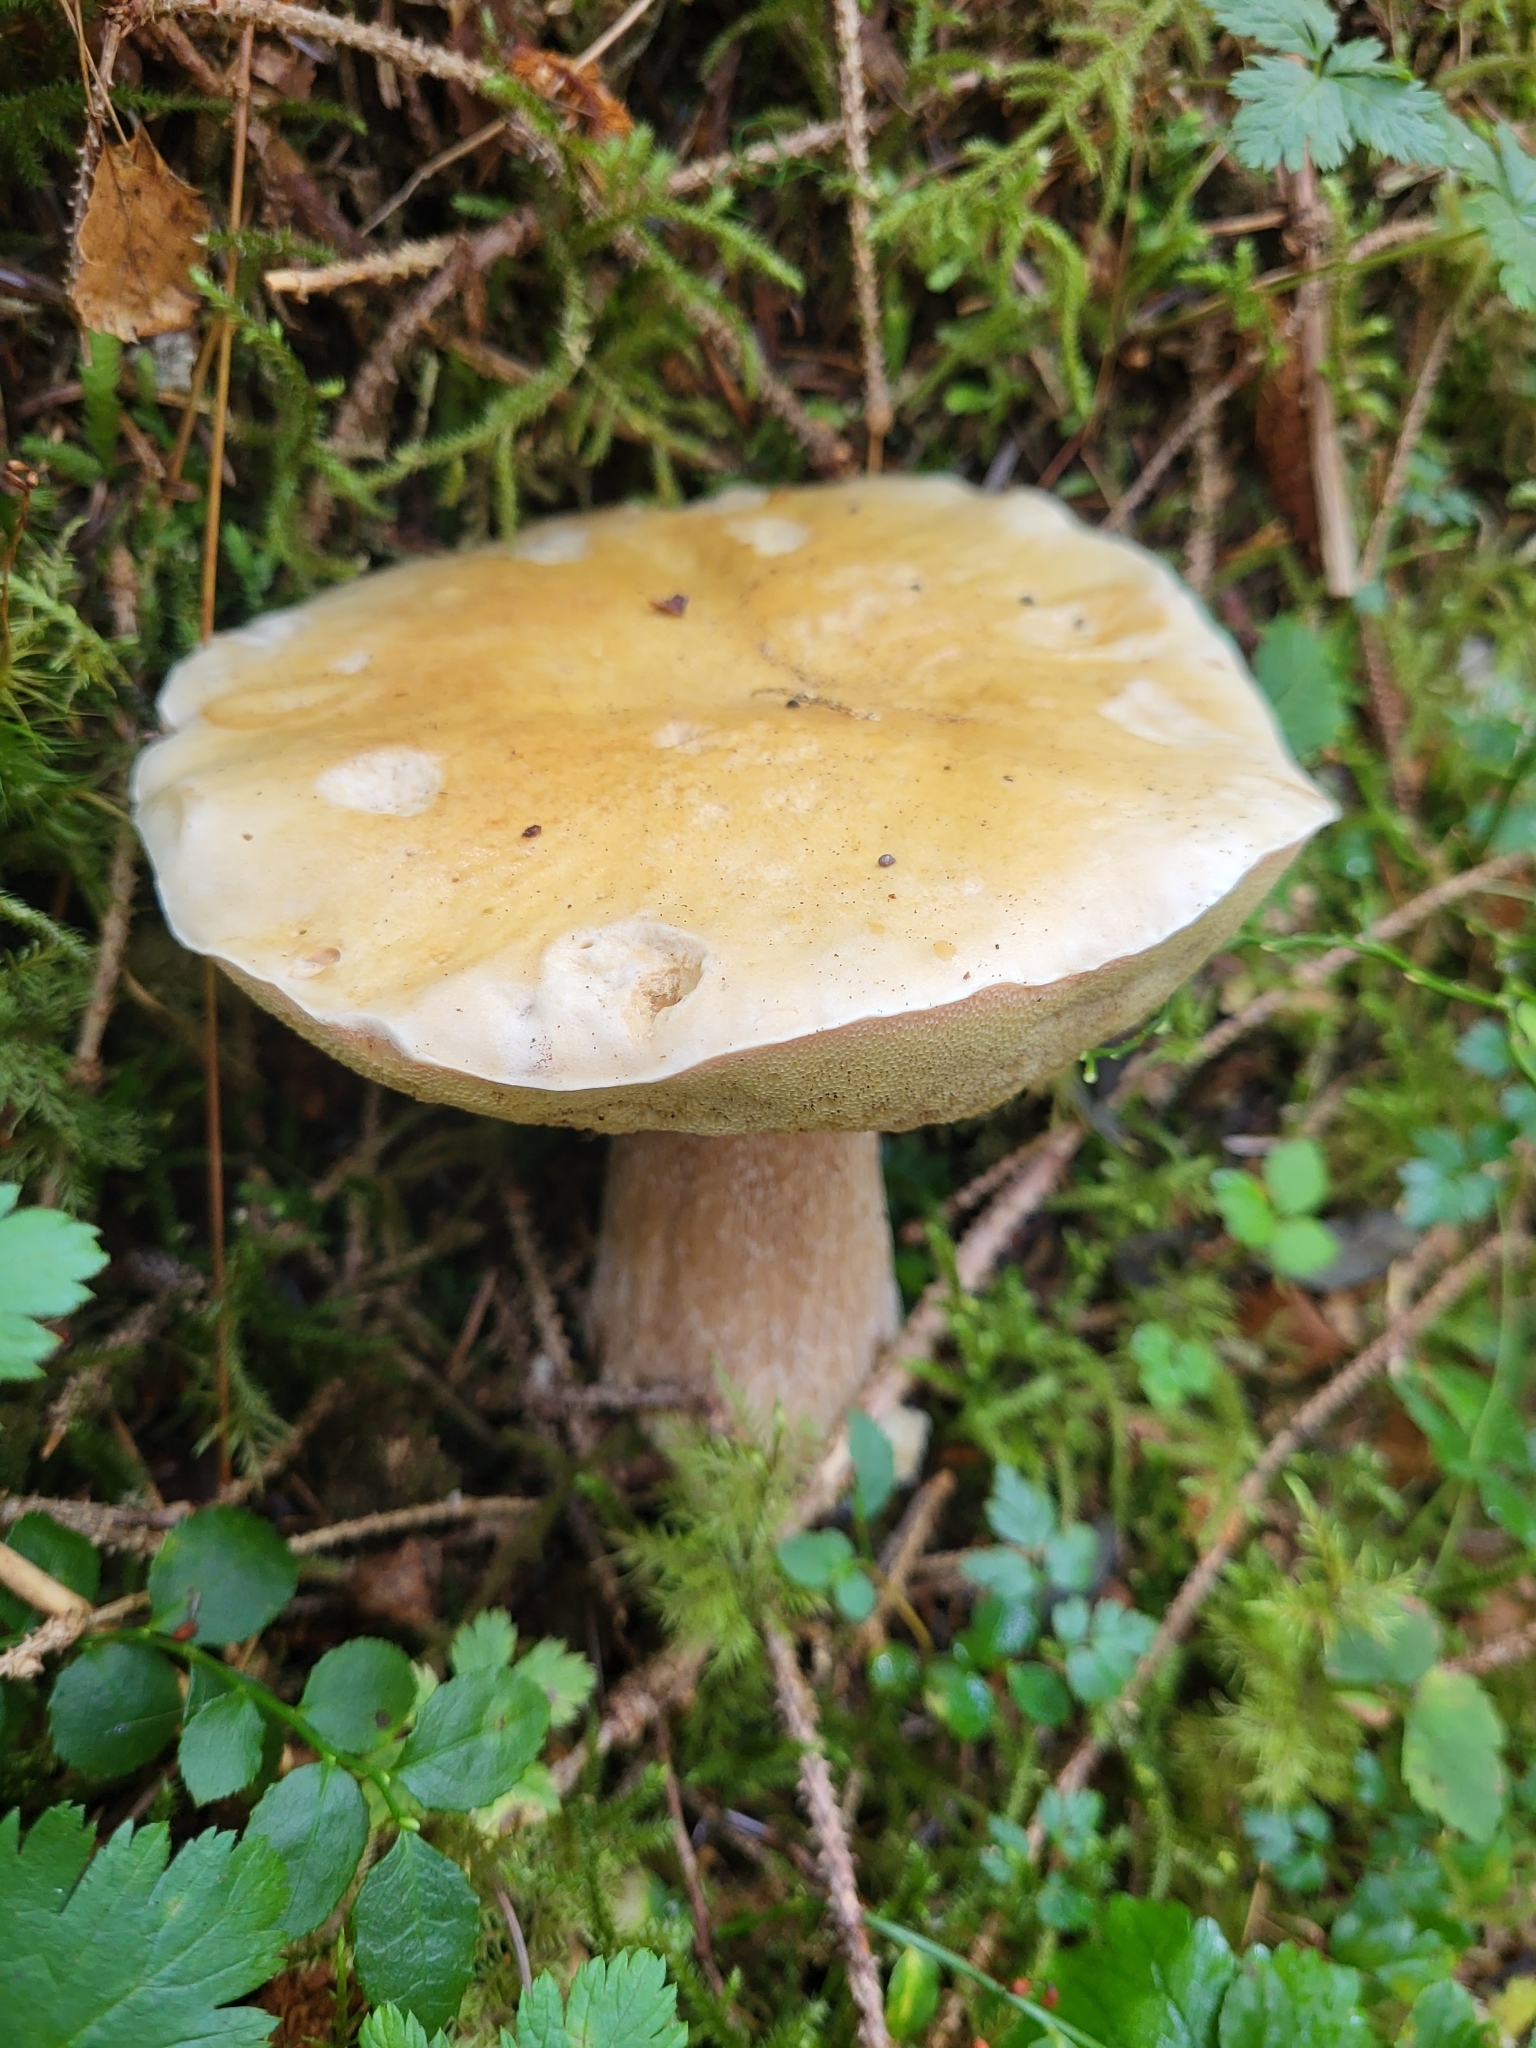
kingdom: Fungi
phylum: Basidiomycota
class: Agaricomycetes
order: Boletales
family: Boletaceae
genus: Boletus
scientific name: Boletus edulis
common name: Cep
